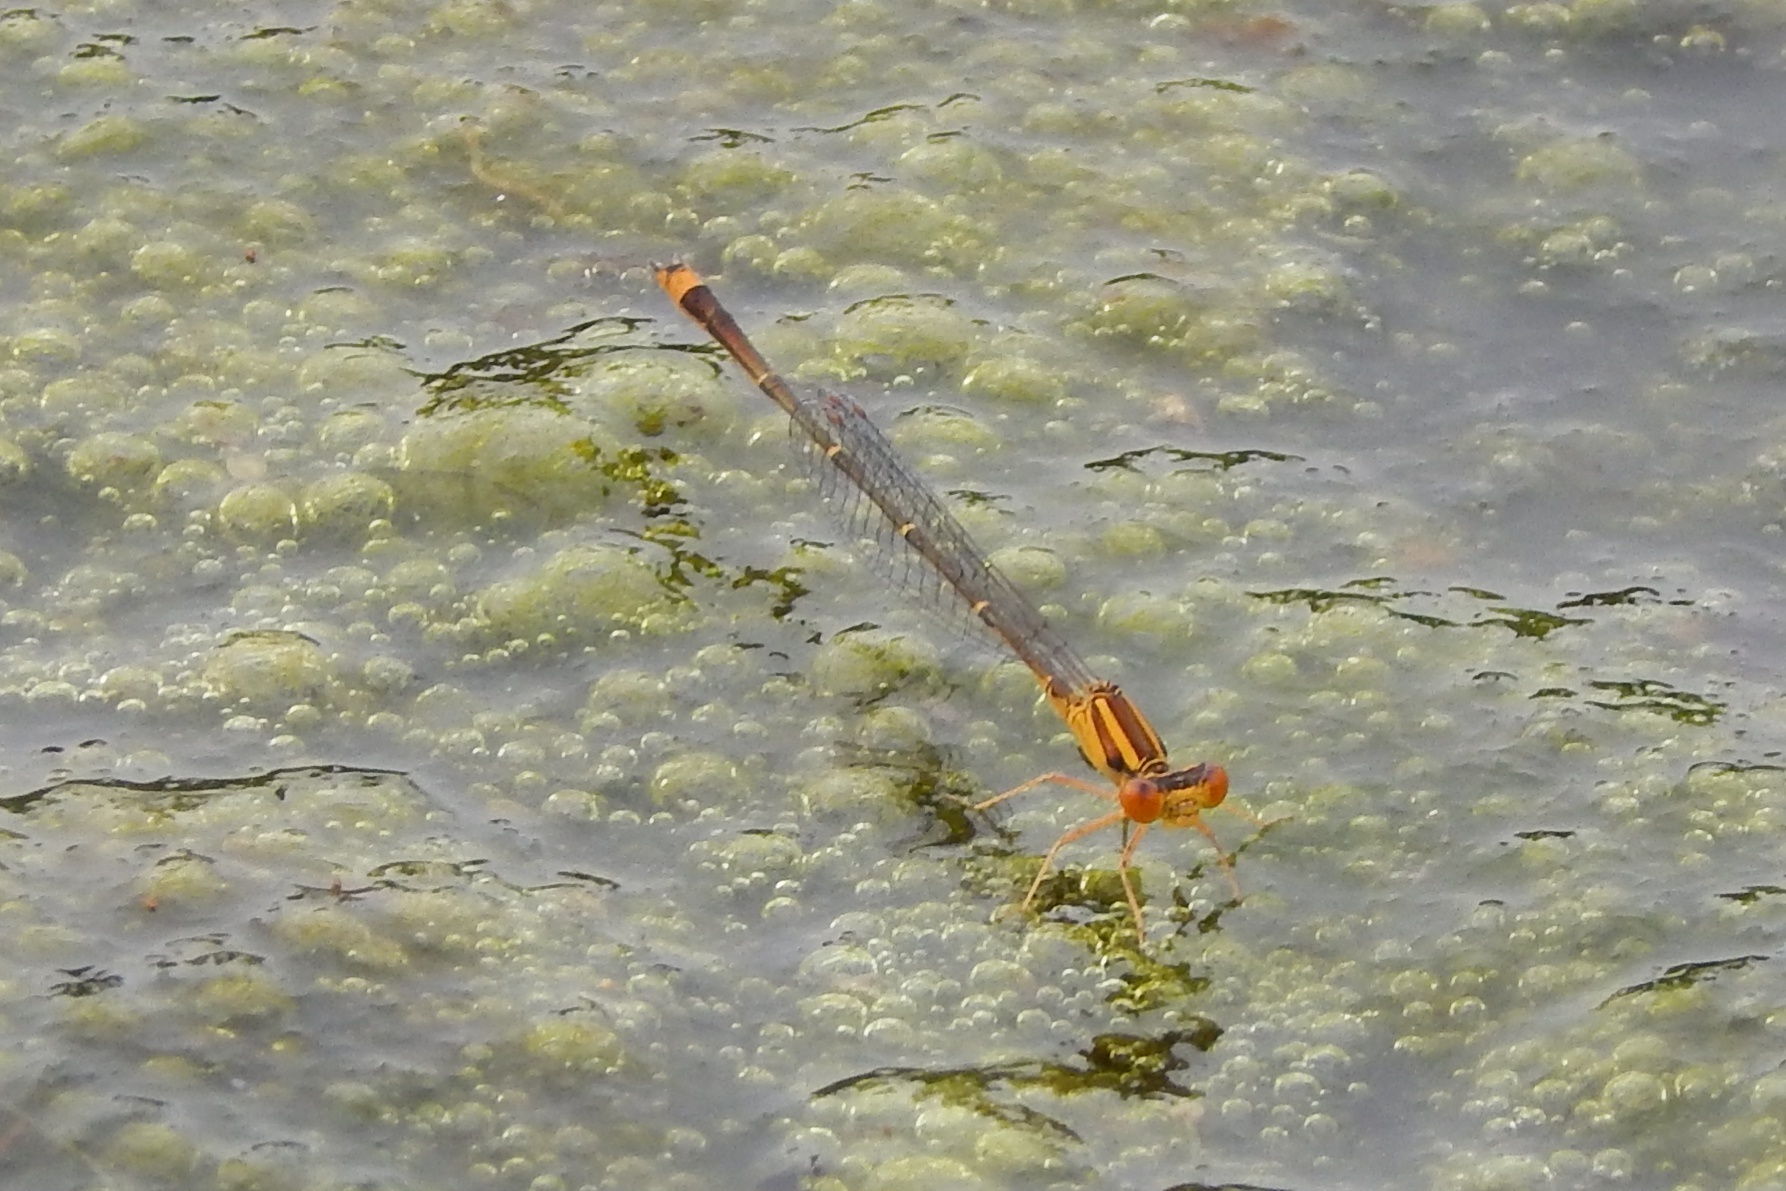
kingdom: Animalia
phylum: Arthropoda
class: Insecta
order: Odonata
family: Coenagrionidae
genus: Enallagma
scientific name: Enallagma signatum
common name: Orange bluet
